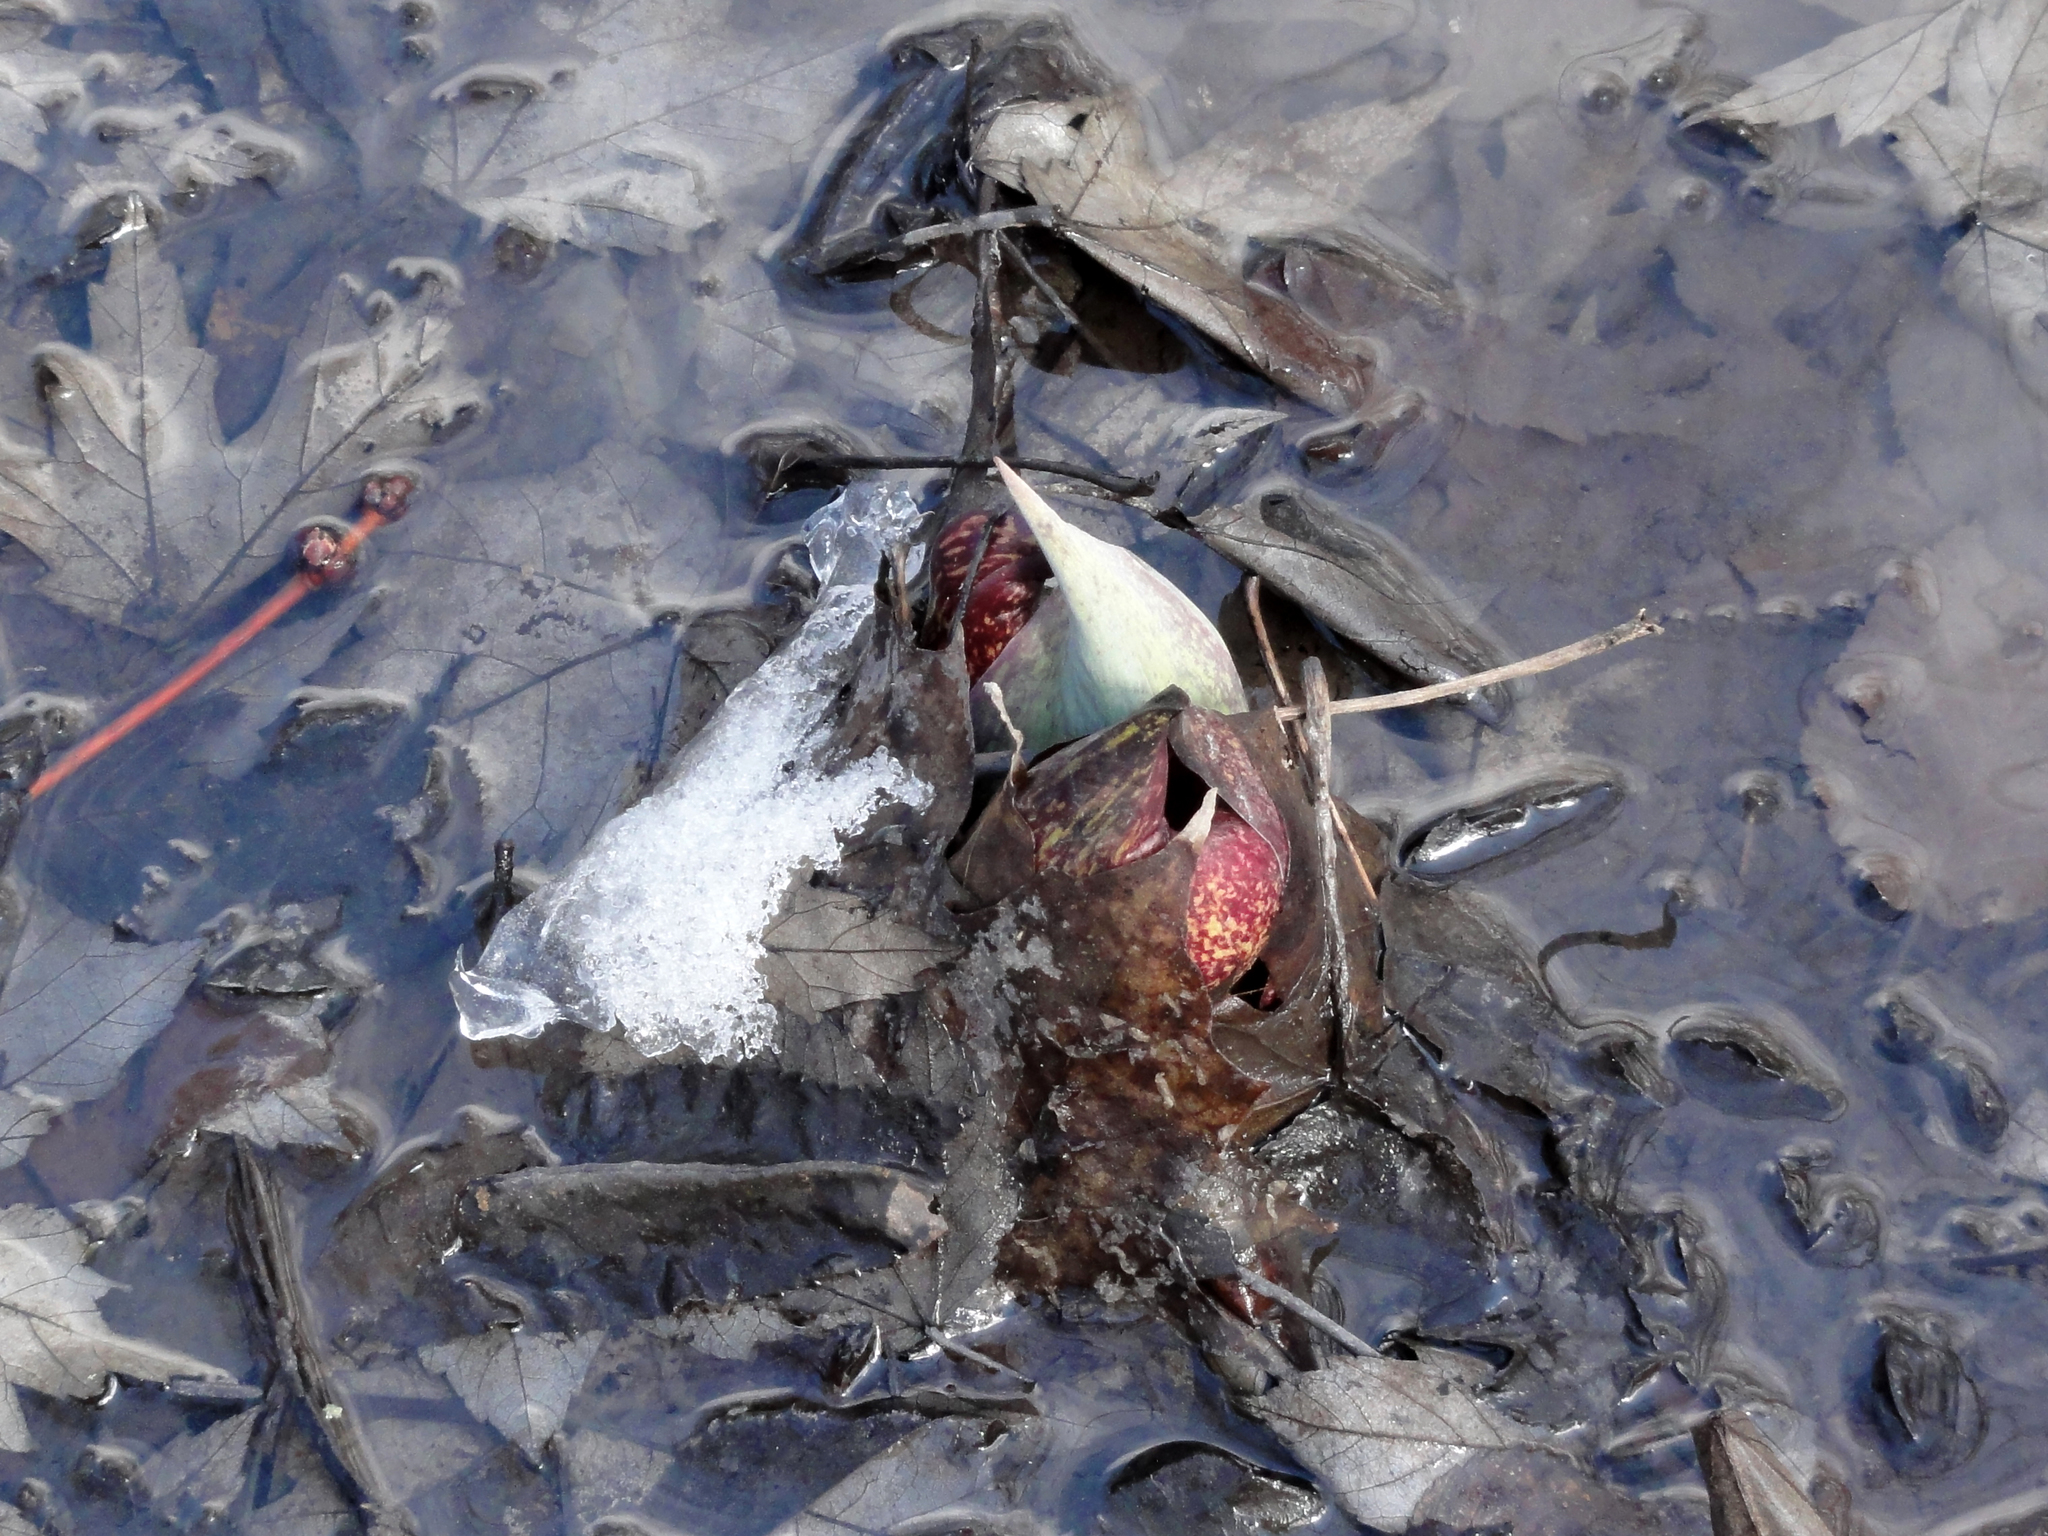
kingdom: Plantae
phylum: Tracheophyta
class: Liliopsida
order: Alismatales
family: Araceae
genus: Symplocarpus
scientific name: Symplocarpus foetidus
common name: Eastern skunk cabbage
